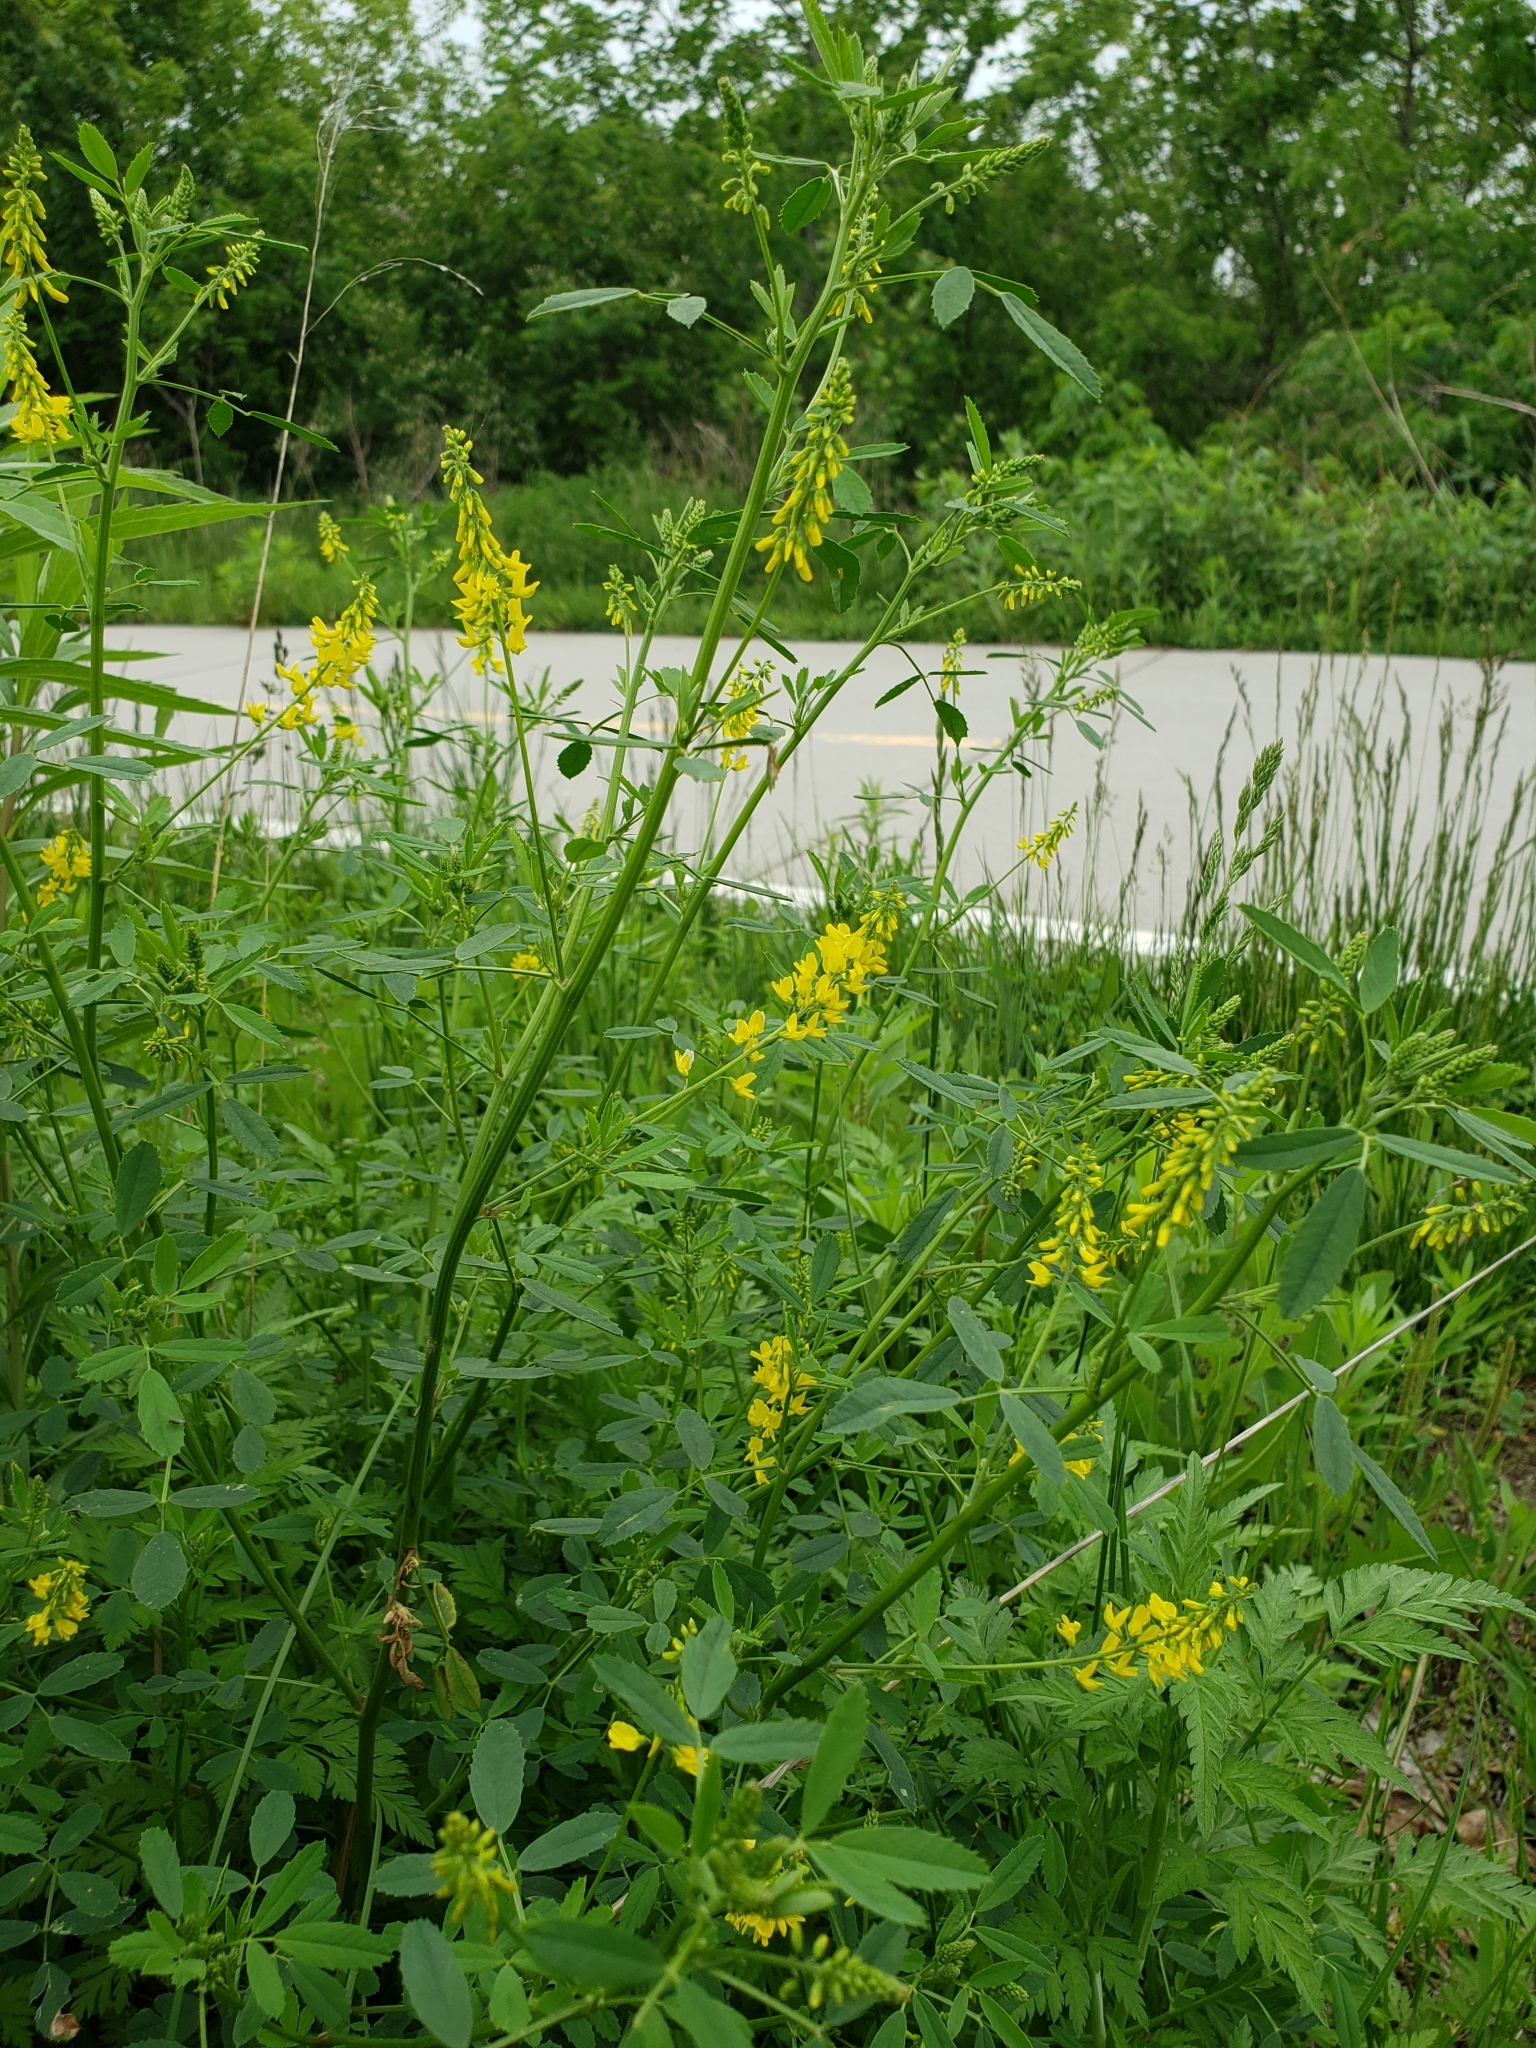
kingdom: Plantae
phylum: Tracheophyta
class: Magnoliopsida
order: Fabales
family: Fabaceae
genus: Melilotus
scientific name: Melilotus officinalis
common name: Sweetclover
